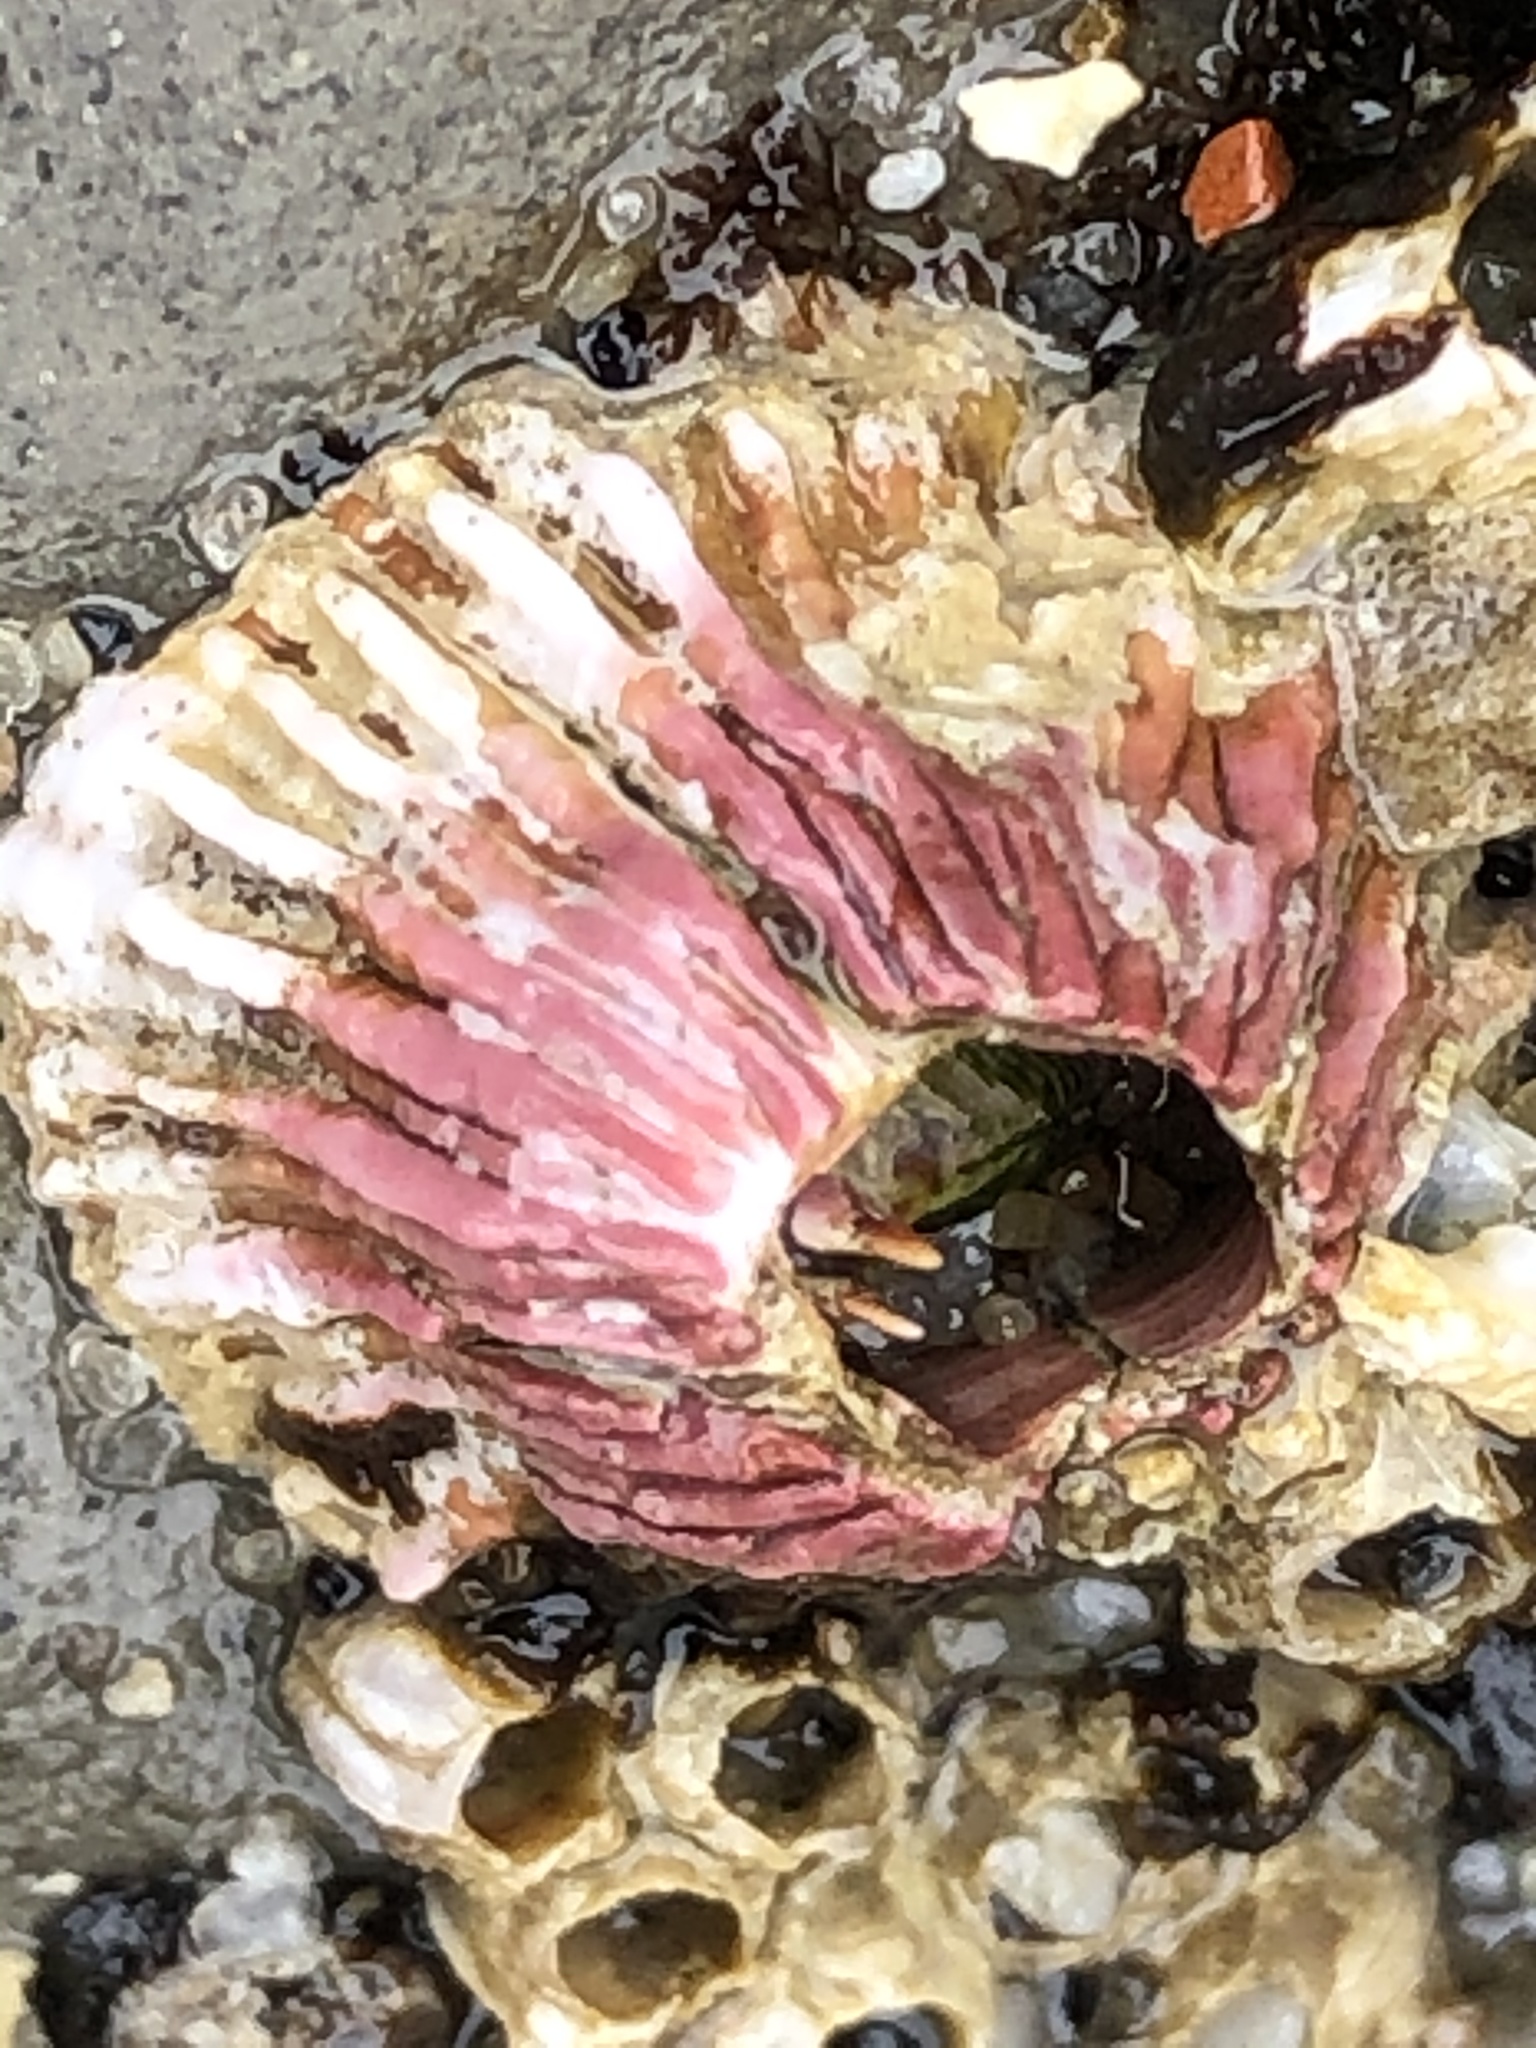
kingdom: Animalia
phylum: Arthropoda
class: Maxillopoda
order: Sessilia
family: Tetraclitidae
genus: Tetraclita
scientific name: Tetraclita rubescens
